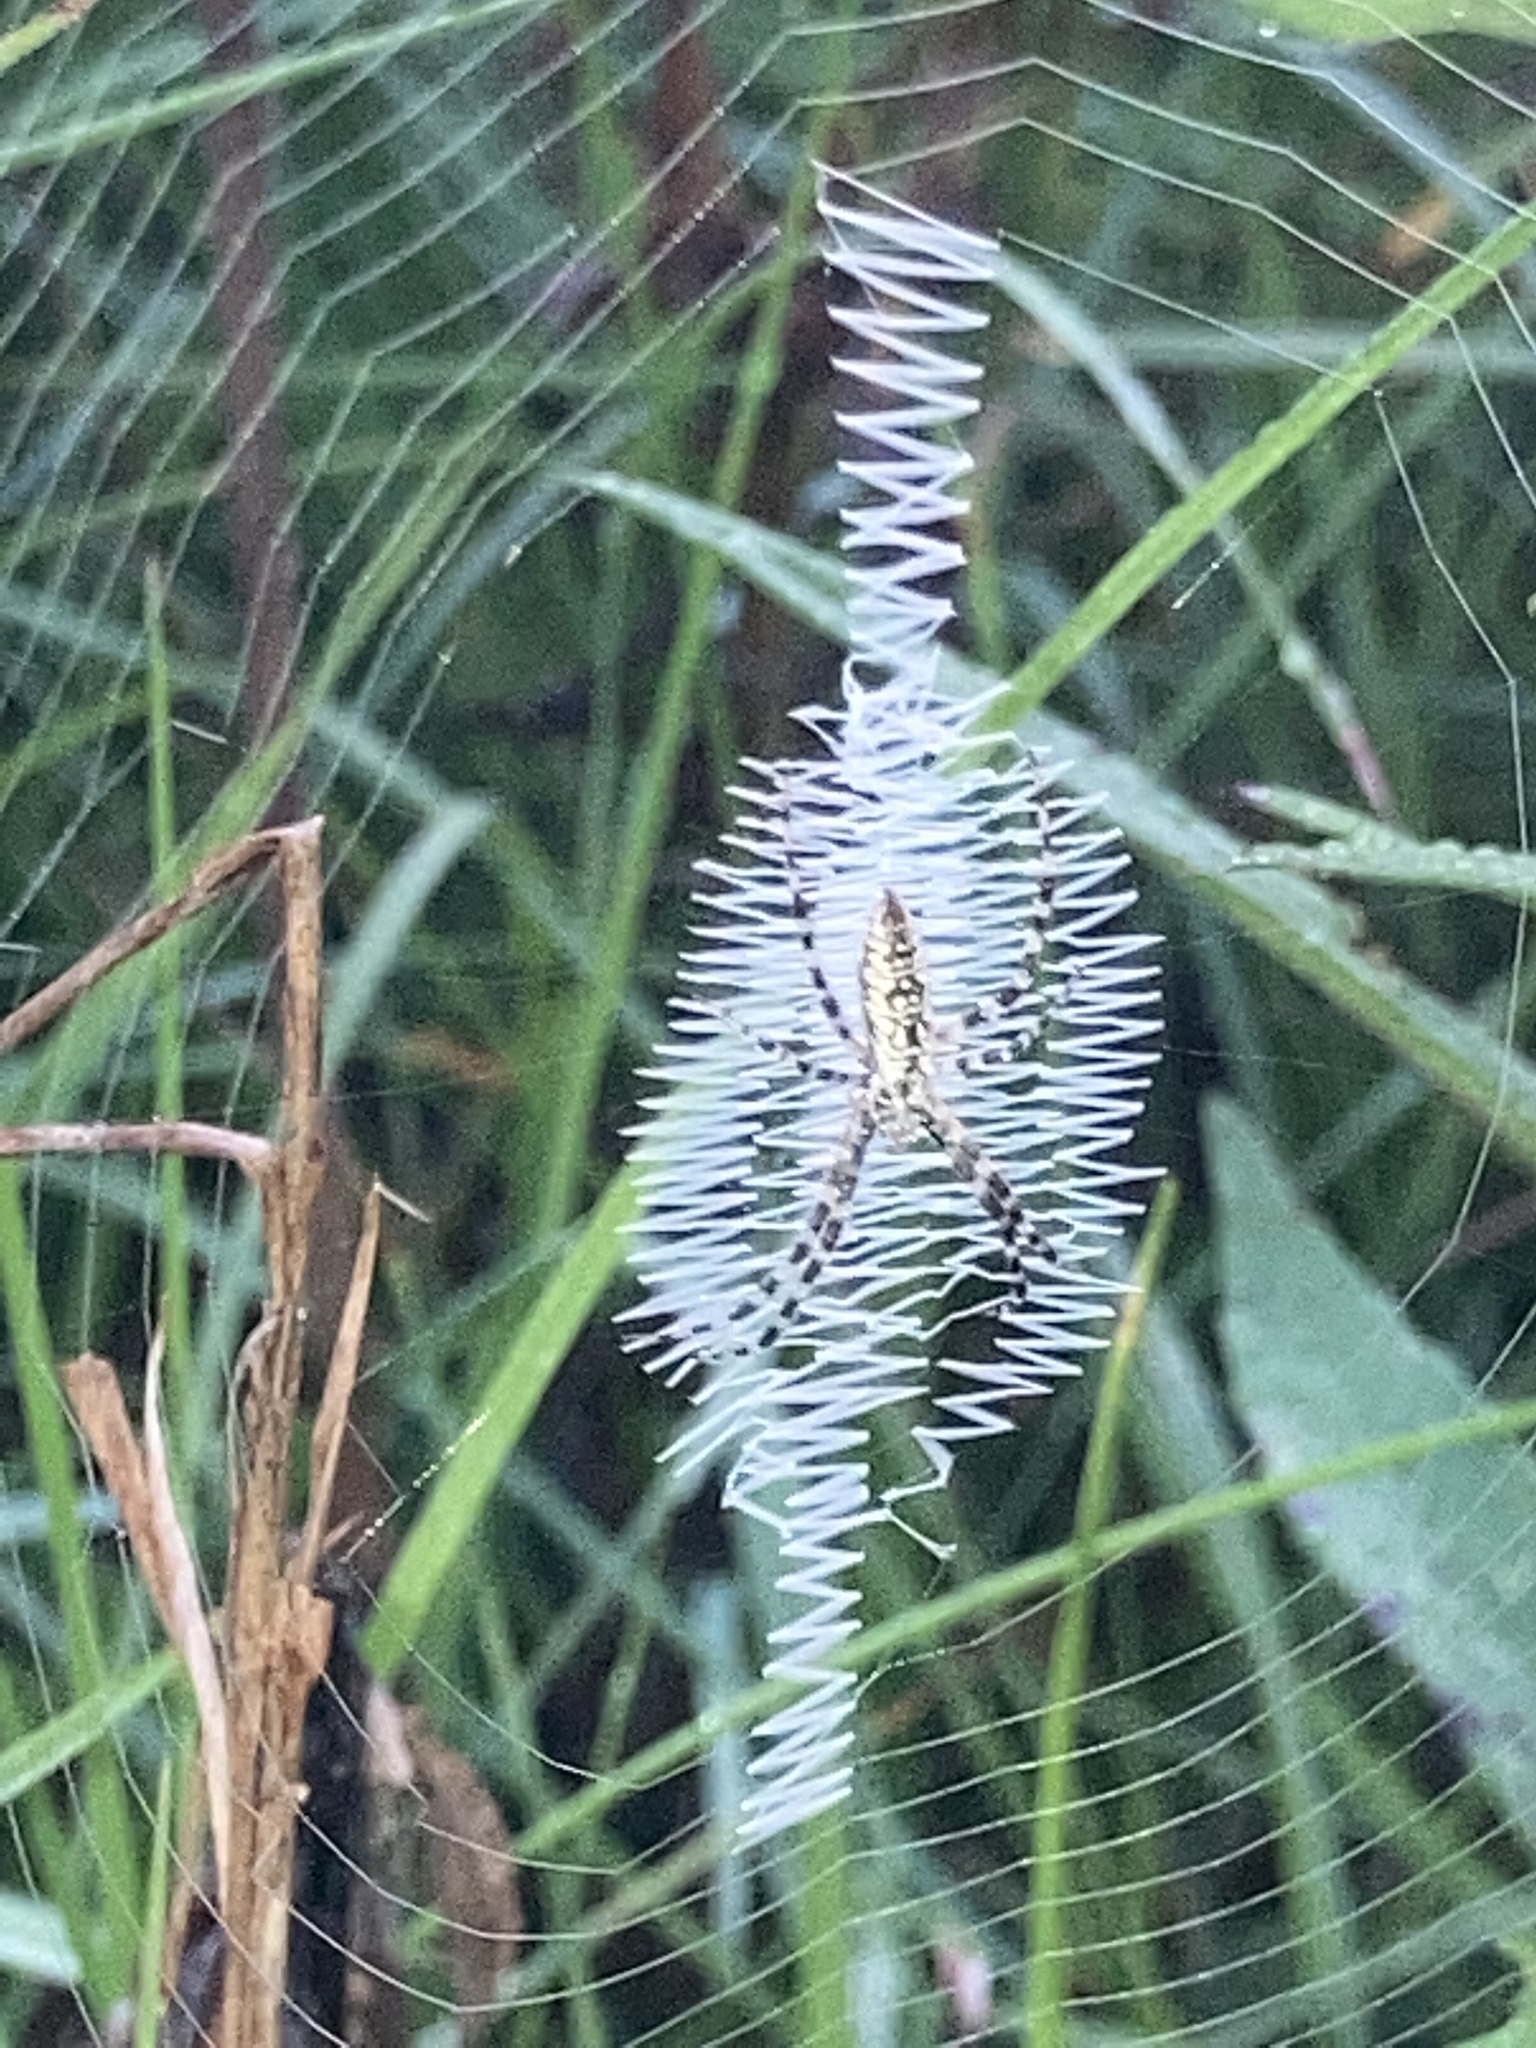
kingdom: Animalia
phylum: Arthropoda
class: Arachnida
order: Araneae
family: Araneidae
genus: Argiope
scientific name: Argiope aurantia
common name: Orb weavers
